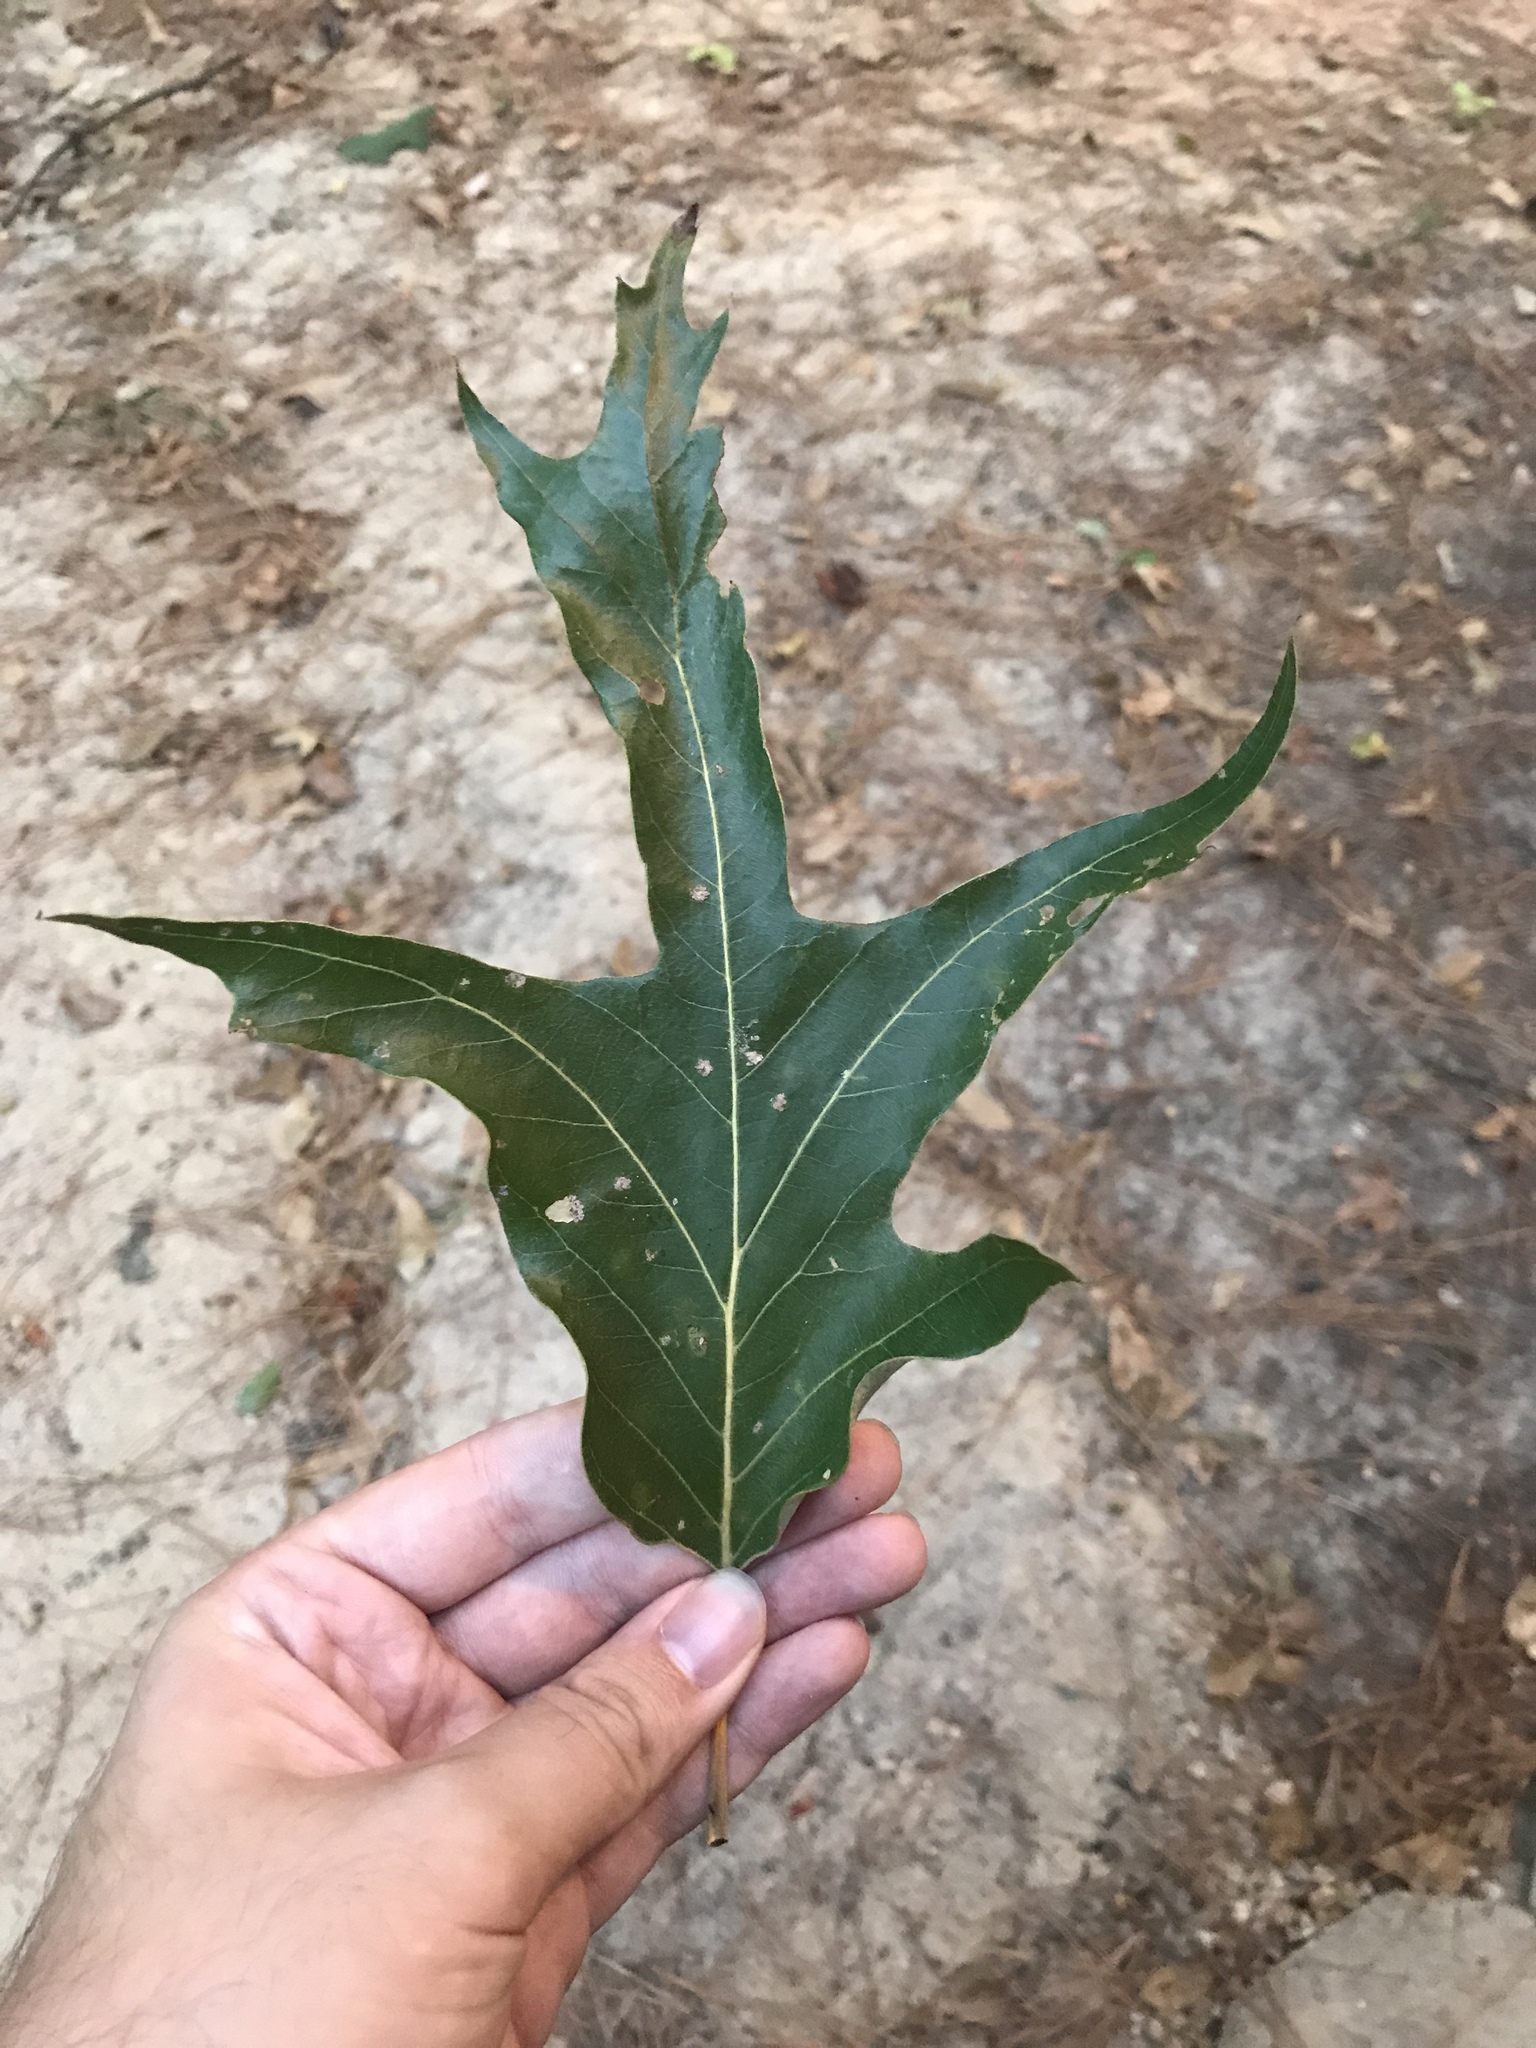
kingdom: Plantae
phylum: Tracheophyta
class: Magnoliopsida
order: Fagales
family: Fagaceae
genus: Quercus
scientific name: Quercus falcata
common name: Southern red oak
